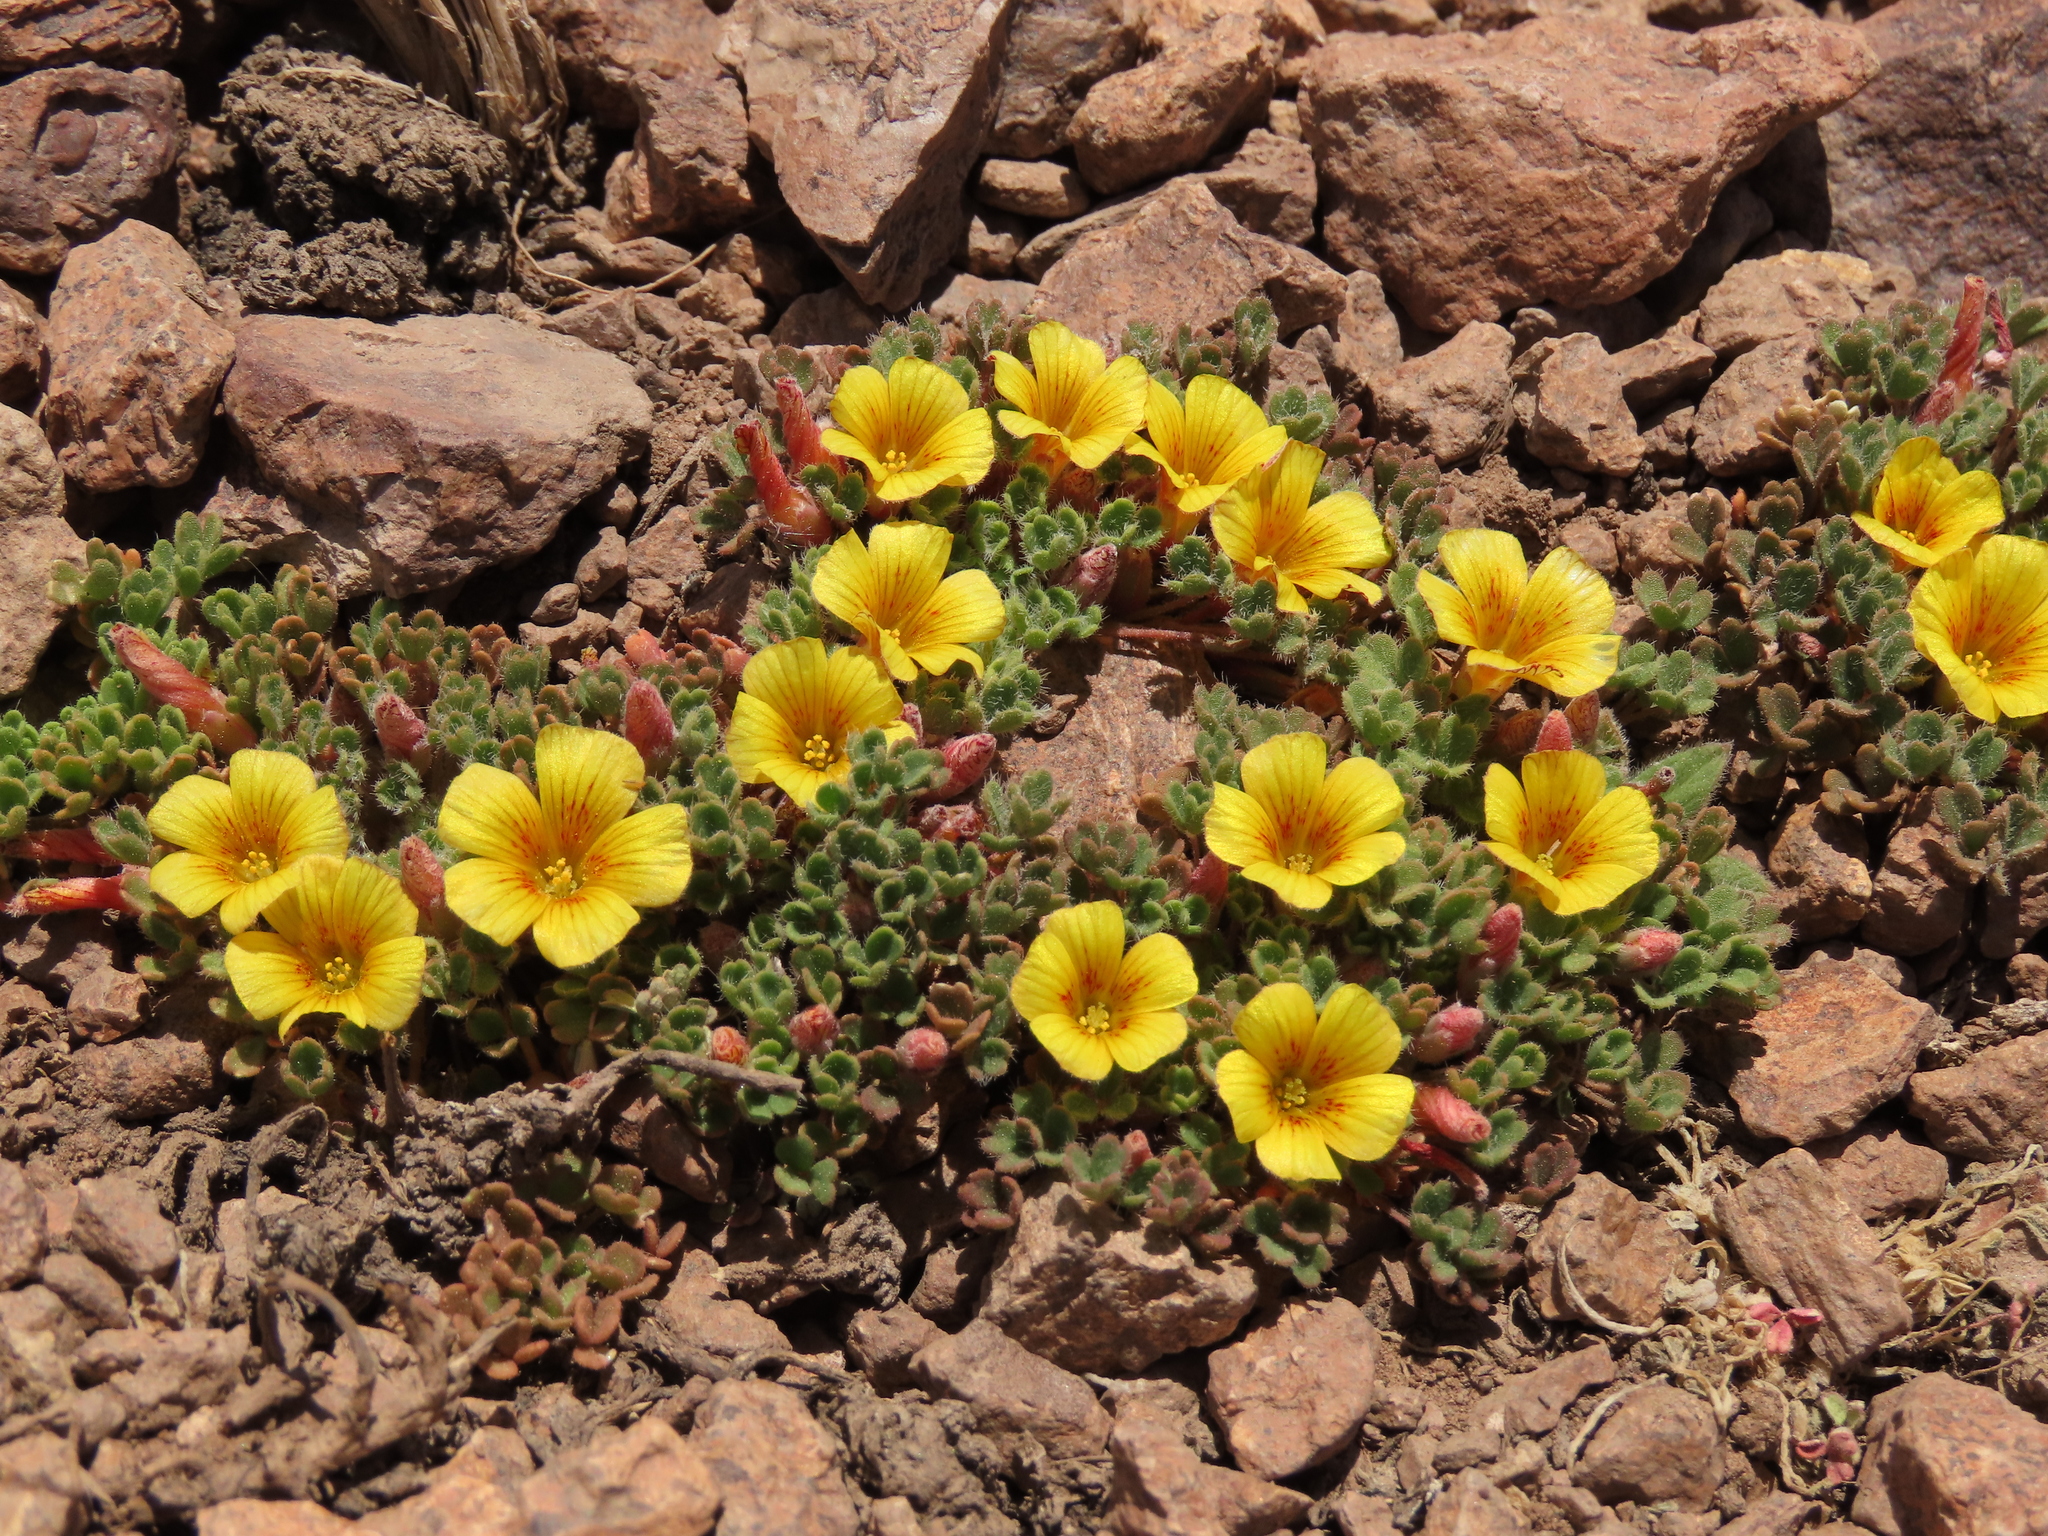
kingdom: Plantae
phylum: Tracheophyta
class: Magnoliopsida
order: Oxalidales
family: Oxalidaceae
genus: Oxalis
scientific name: Oxalis compacta
